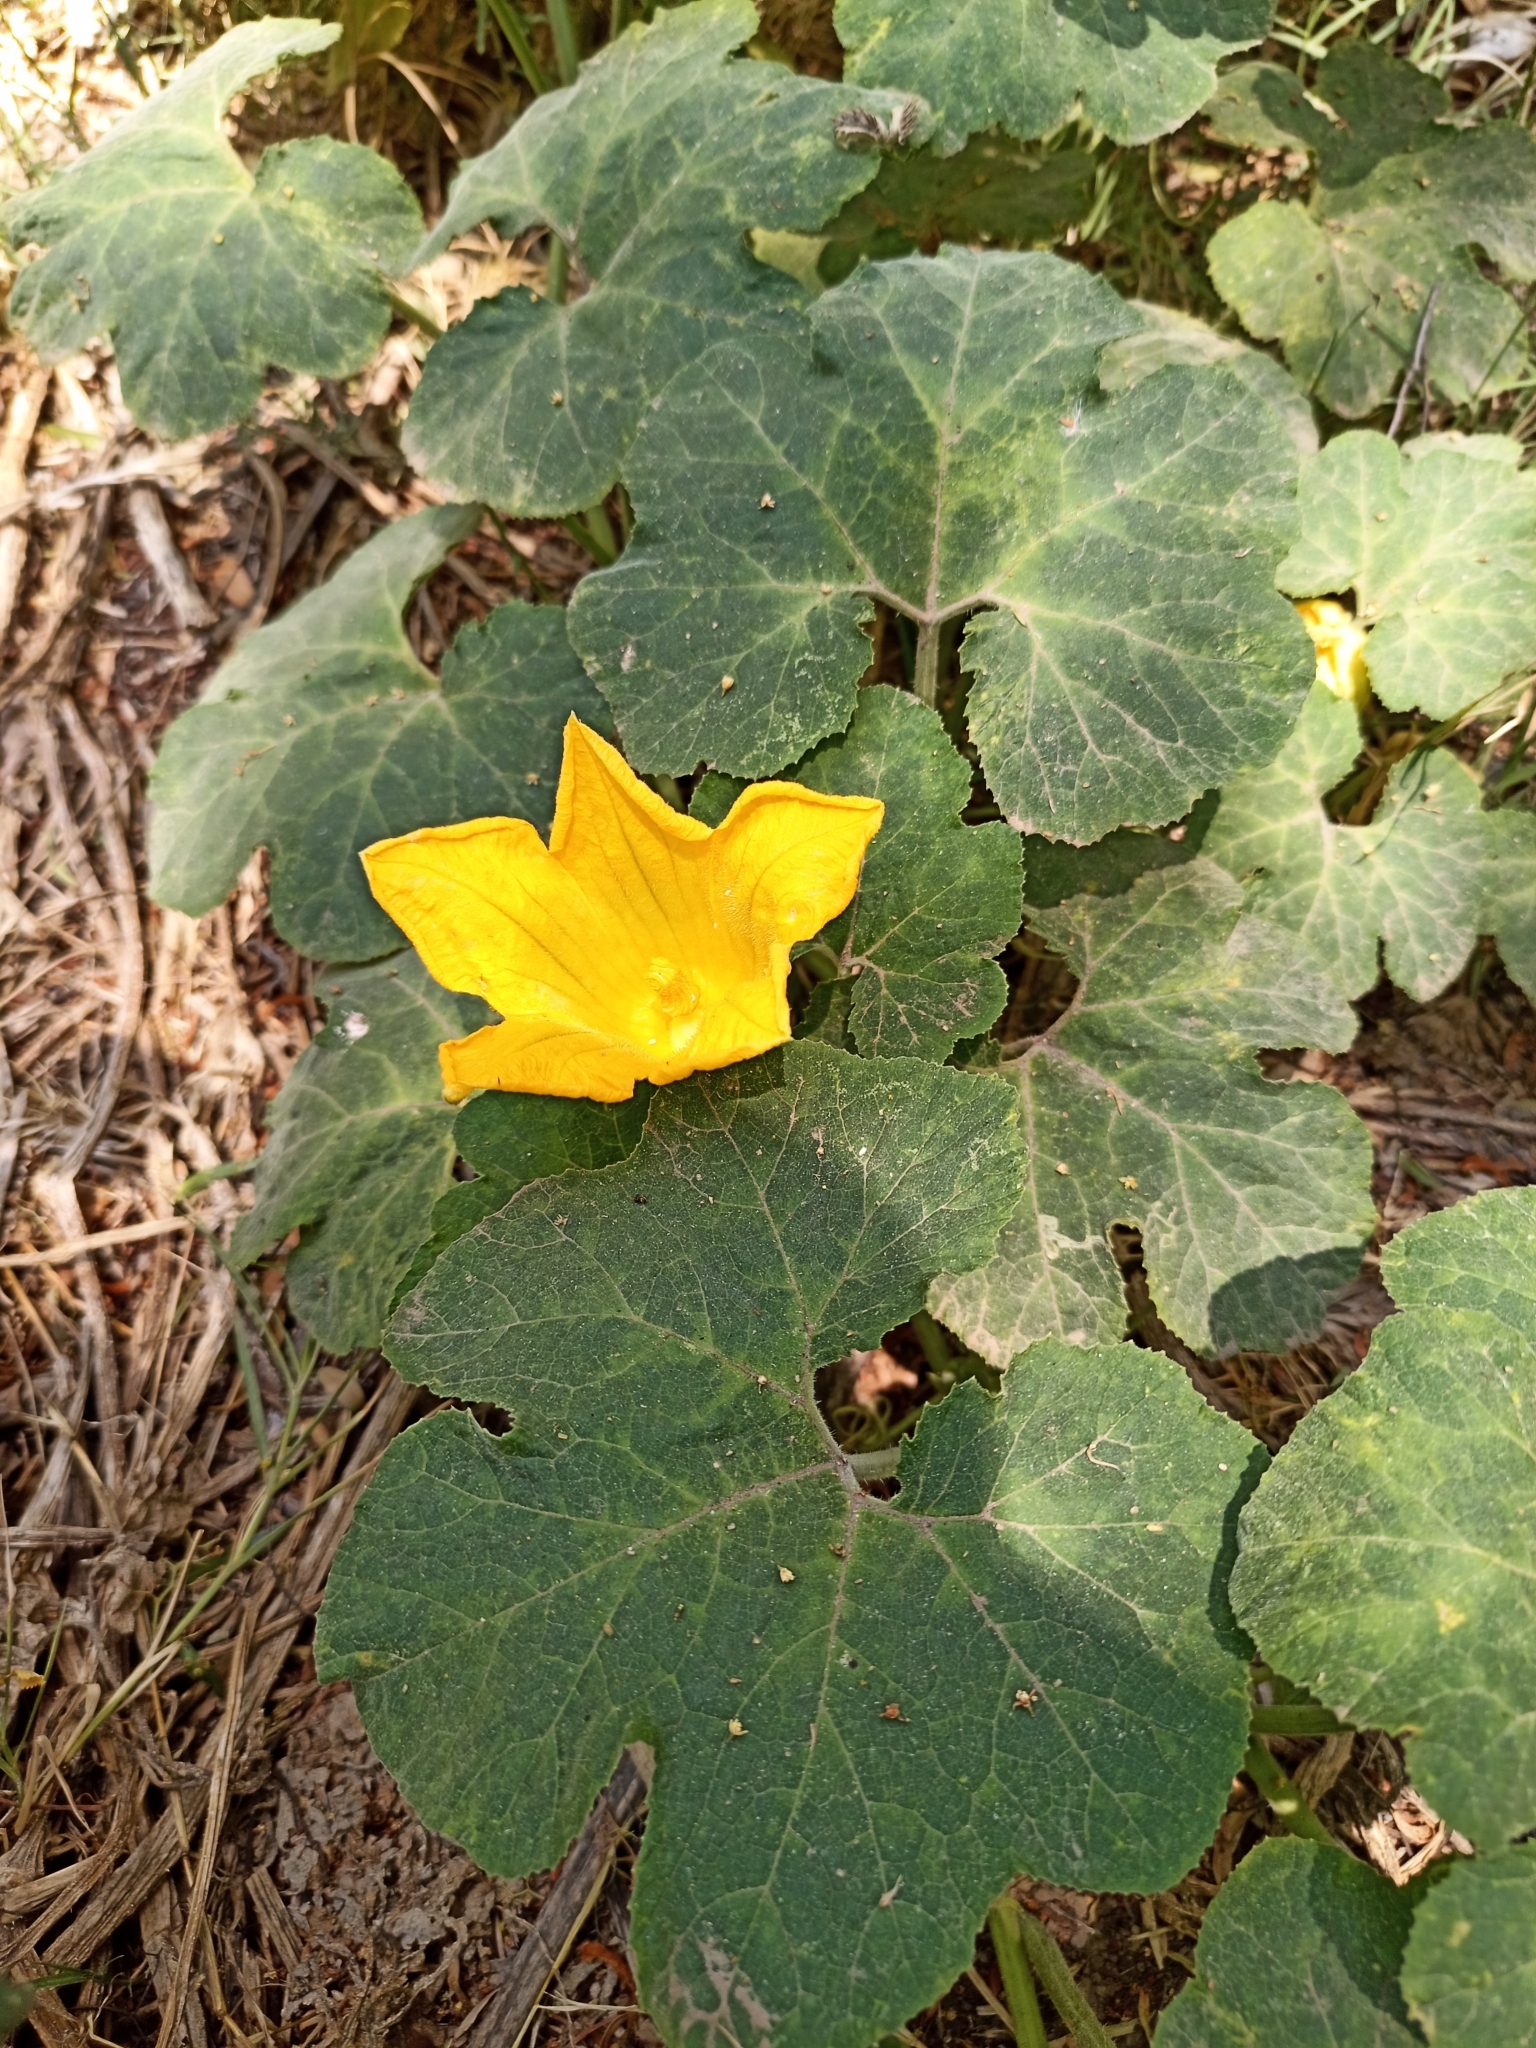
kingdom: Plantae
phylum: Tracheophyta
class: Magnoliopsida
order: Cucurbitales
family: Cucurbitaceae
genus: Cucurbita
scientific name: Cucurbita ficifolia
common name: Figleaf gourd
